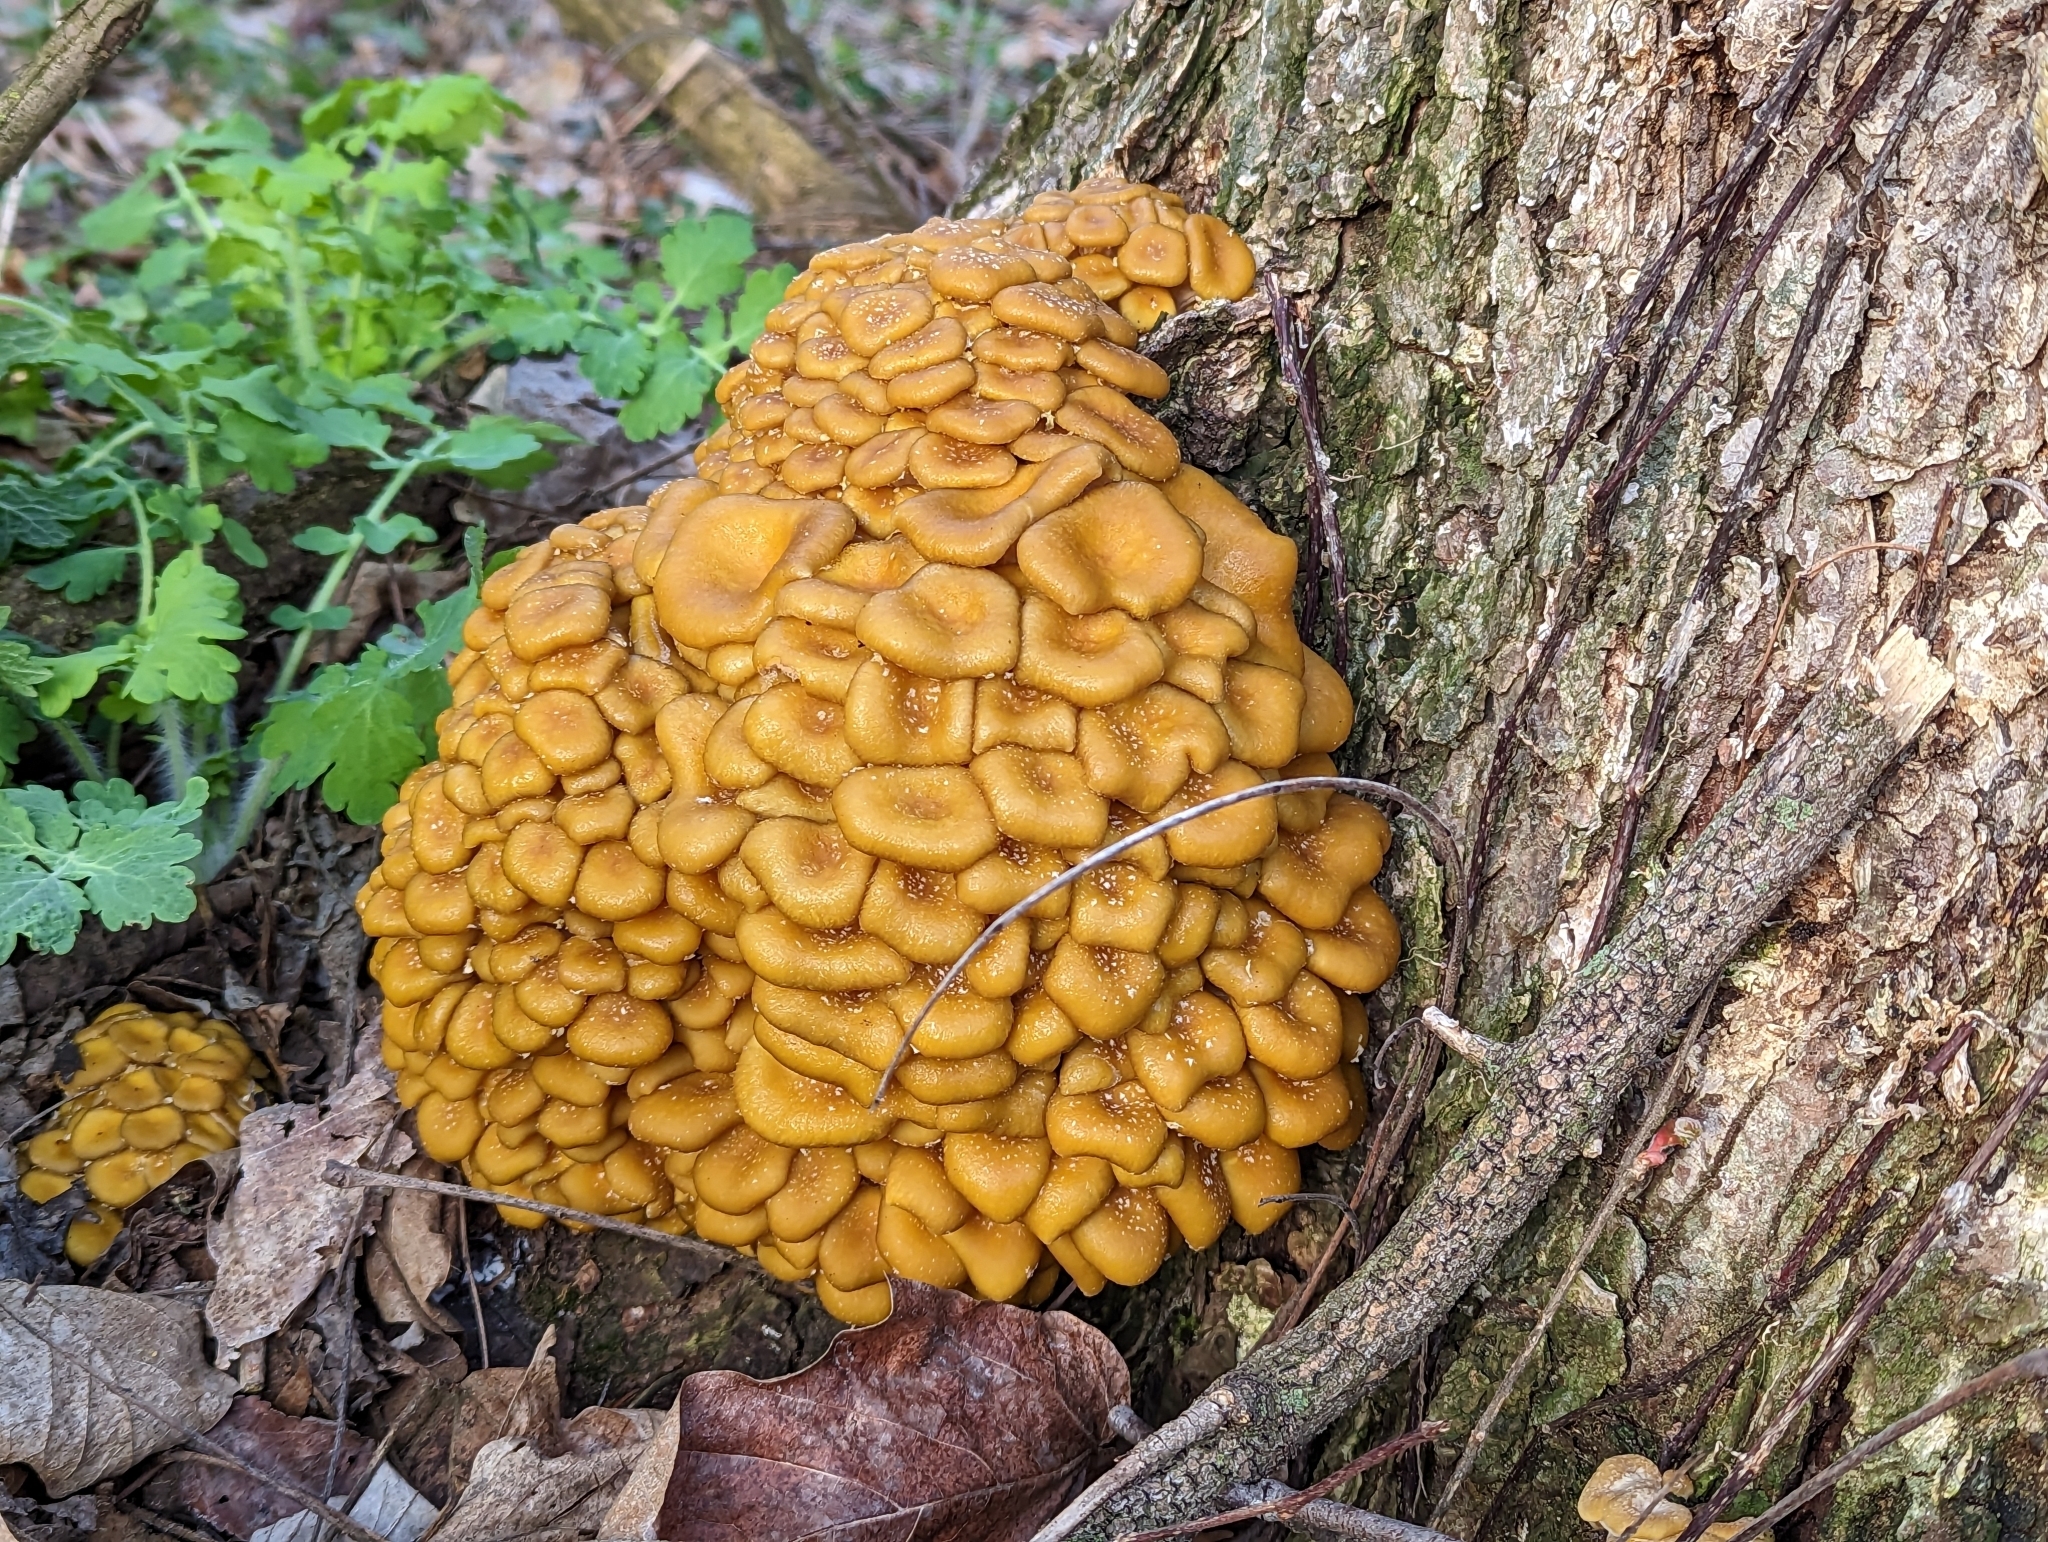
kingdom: Fungi
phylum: Basidiomycota
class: Agaricomycetes
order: Agaricales
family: Pleurotaceae
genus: Pleurotus
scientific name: Pleurotus citrinopileatus
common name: Golden oyster mushroom
